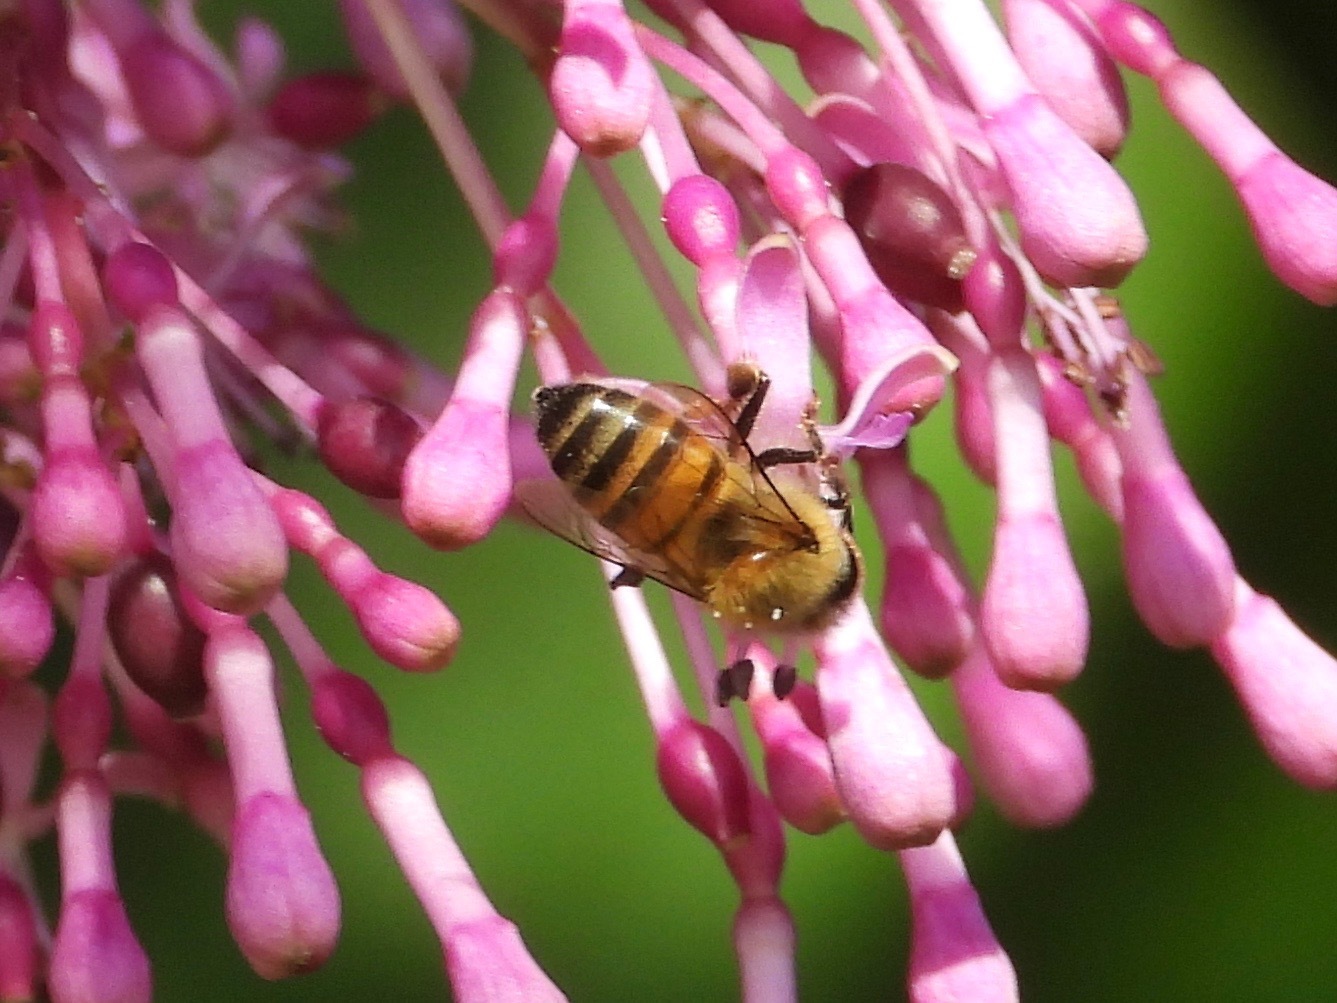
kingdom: Animalia
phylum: Arthropoda
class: Insecta
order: Hymenoptera
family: Apidae
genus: Apis
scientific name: Apis mellifera
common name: Honey bee
